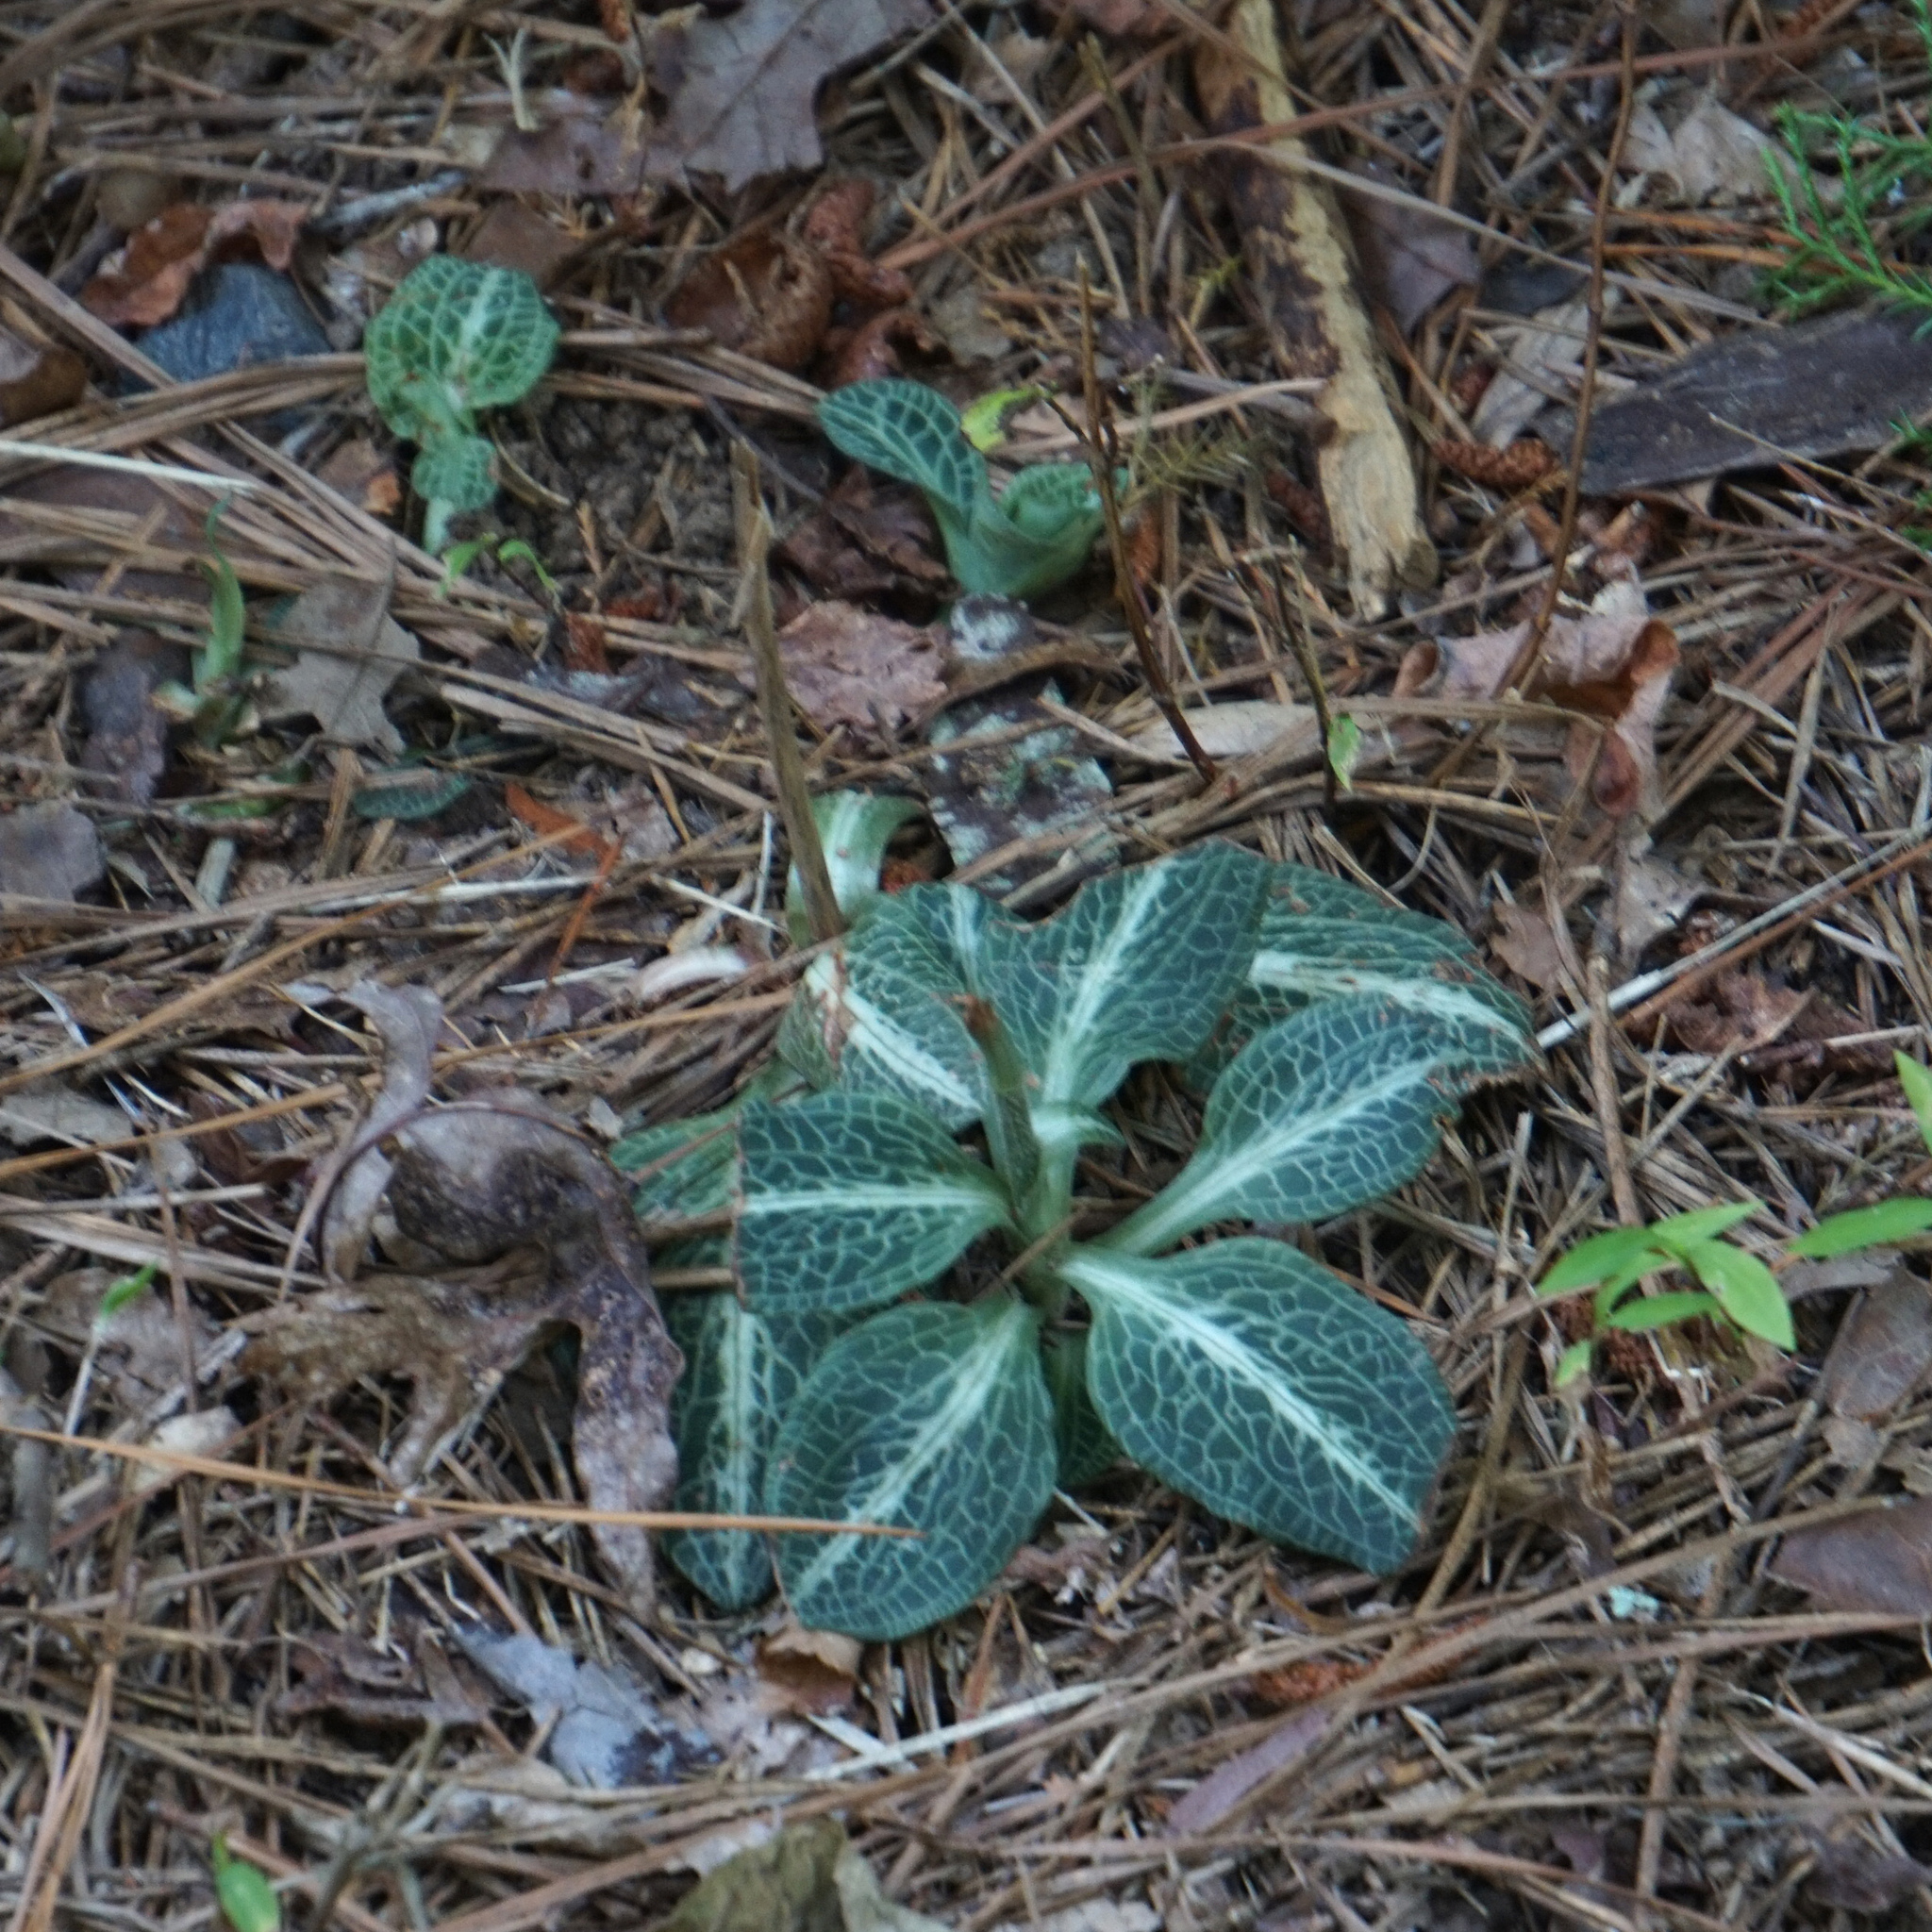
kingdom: Plantae
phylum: Tracheophyta
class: Liliopsida
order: Asparagales
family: Orchidaceae
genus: Goodyera
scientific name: Goodyera pubescens
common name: Downy rattlesnake-plantain
